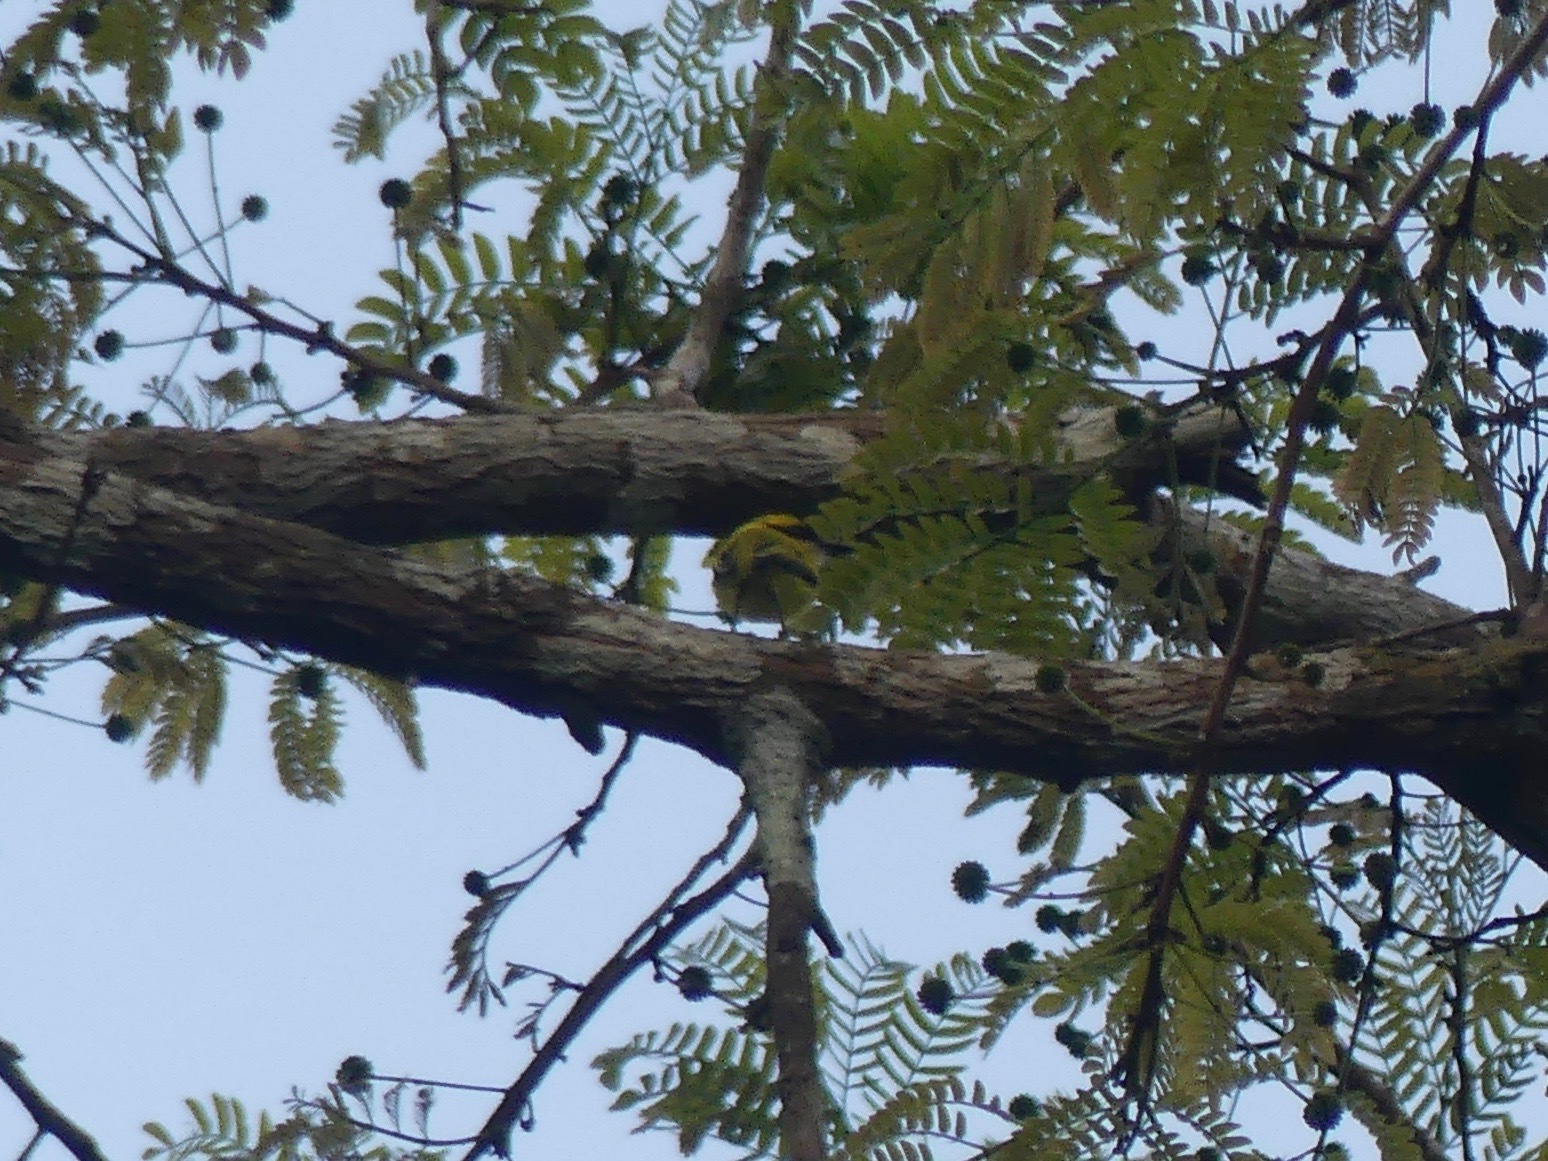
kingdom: Animalia
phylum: Chordata
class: Aves
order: Passeriformes
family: Tyrannidae
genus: Todirostrum
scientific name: Todirostrum chrysocrotaphum
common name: Yellow-browed tody-flycatcher
